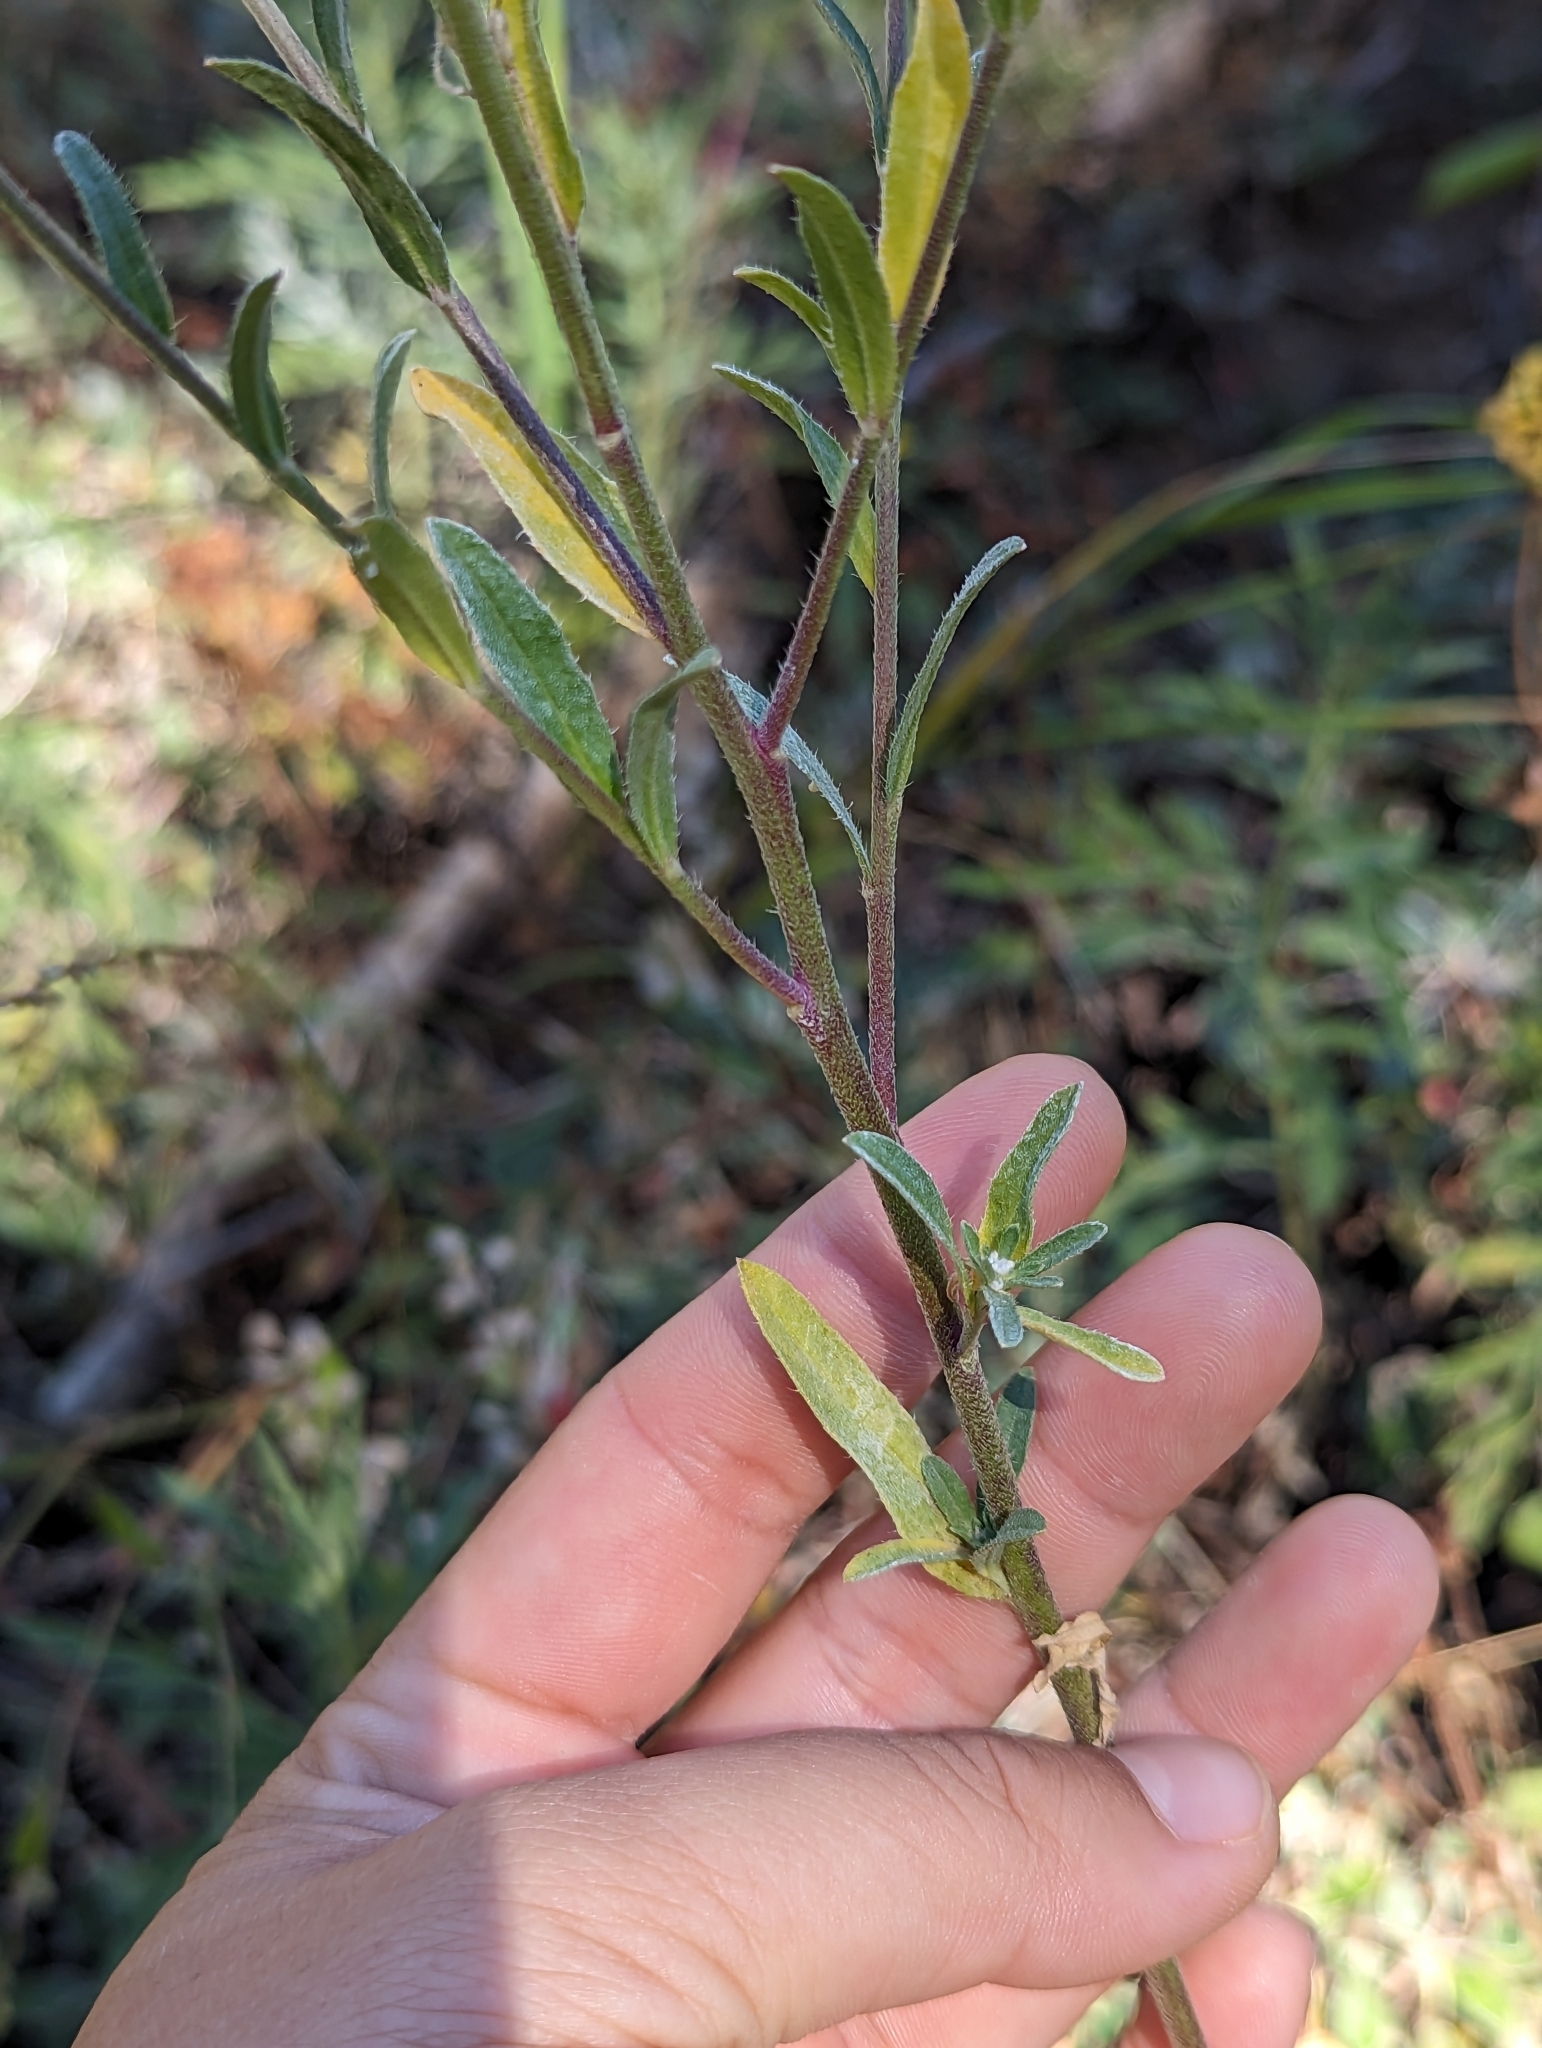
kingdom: Plantae
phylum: Tracheophyta
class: Magnoliopsida
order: Brassicales
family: Brassicaceae
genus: Berteroa
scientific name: Berteroa incana
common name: Hoary alison
